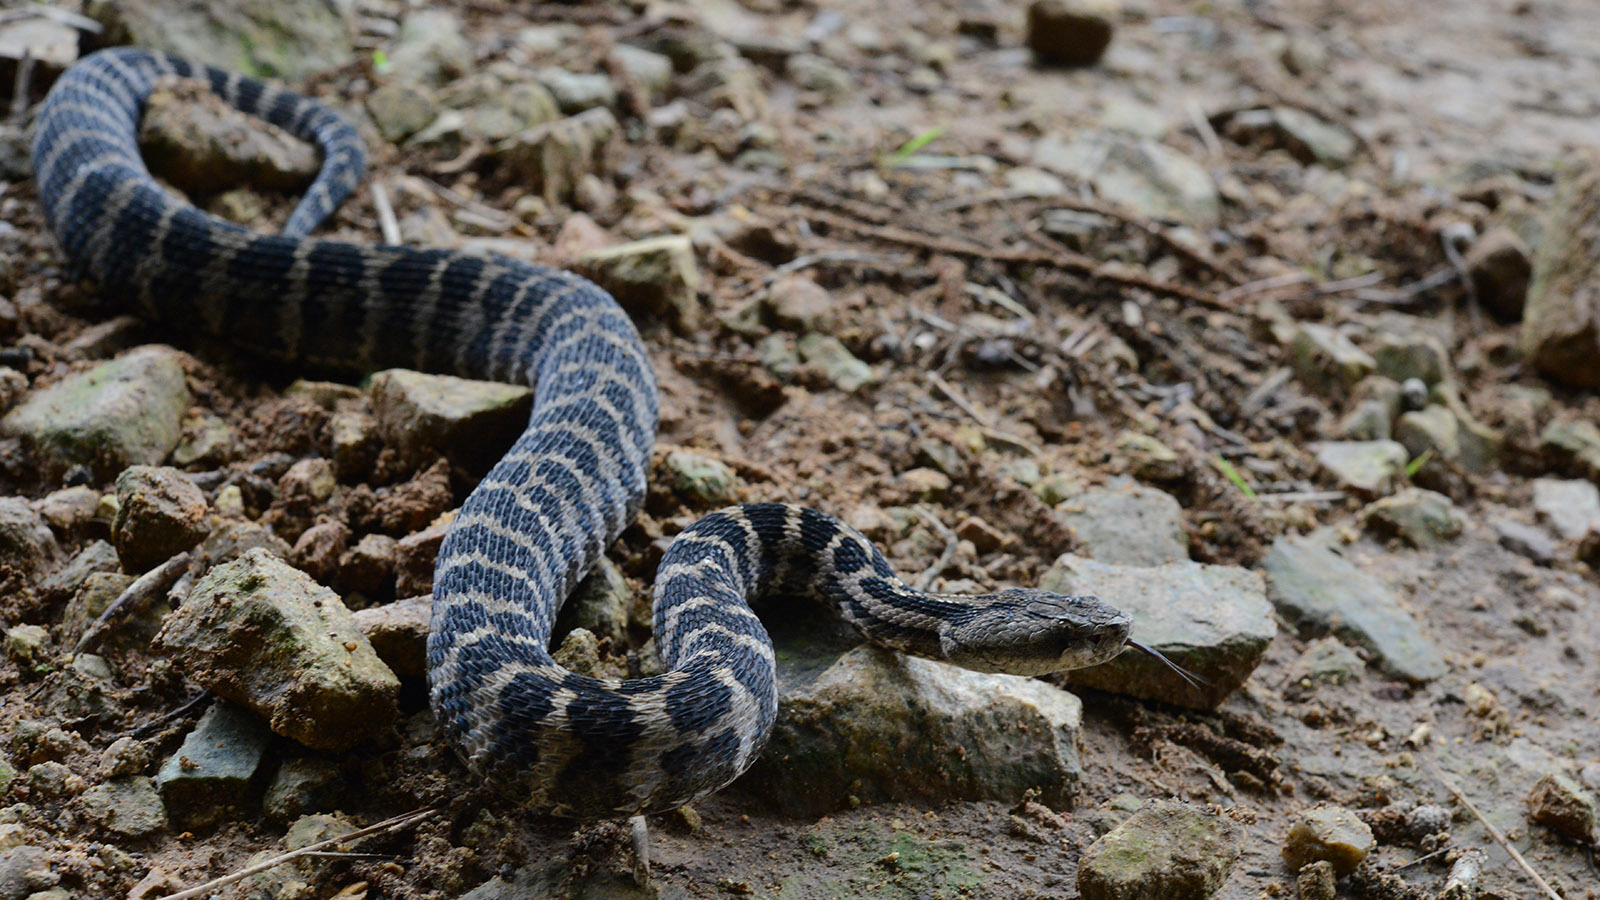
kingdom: Animalia
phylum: Chordata
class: Squamata
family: Viperidae
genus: Gloydius
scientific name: Gloydius intermedius
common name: Central asian pit viper
